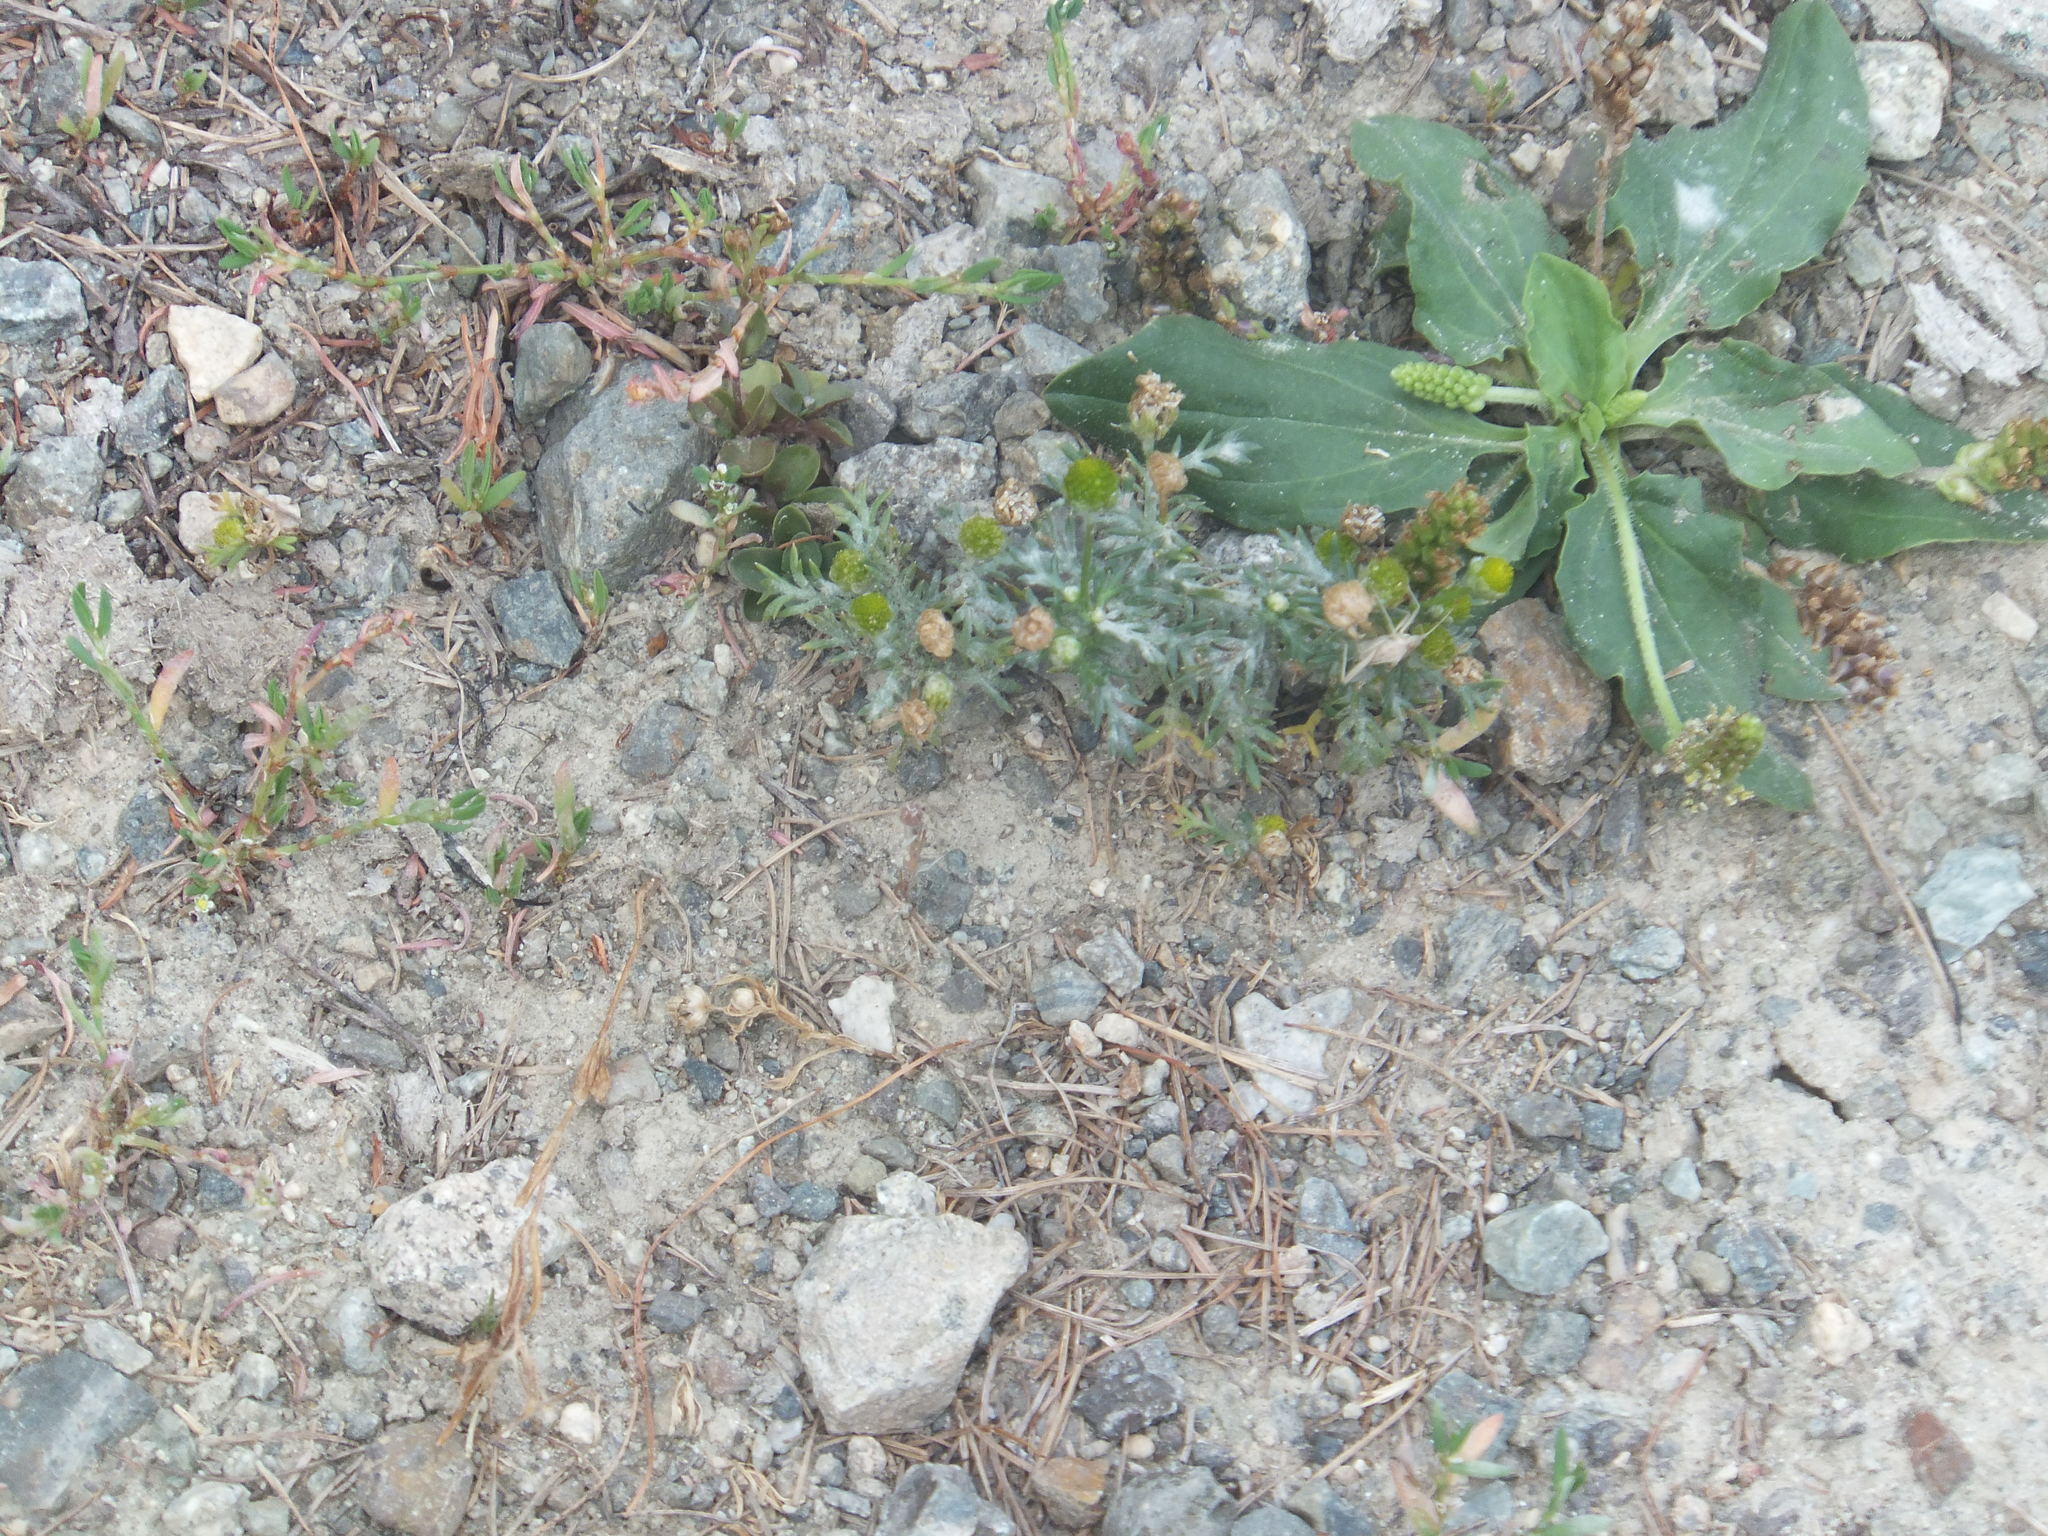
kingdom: Plantae
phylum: Tracheophyta
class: Magnoliopsida
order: Asterales
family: Asteraceae
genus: Matricaria
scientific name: Matricaria discoidea
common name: Disc mayweed
